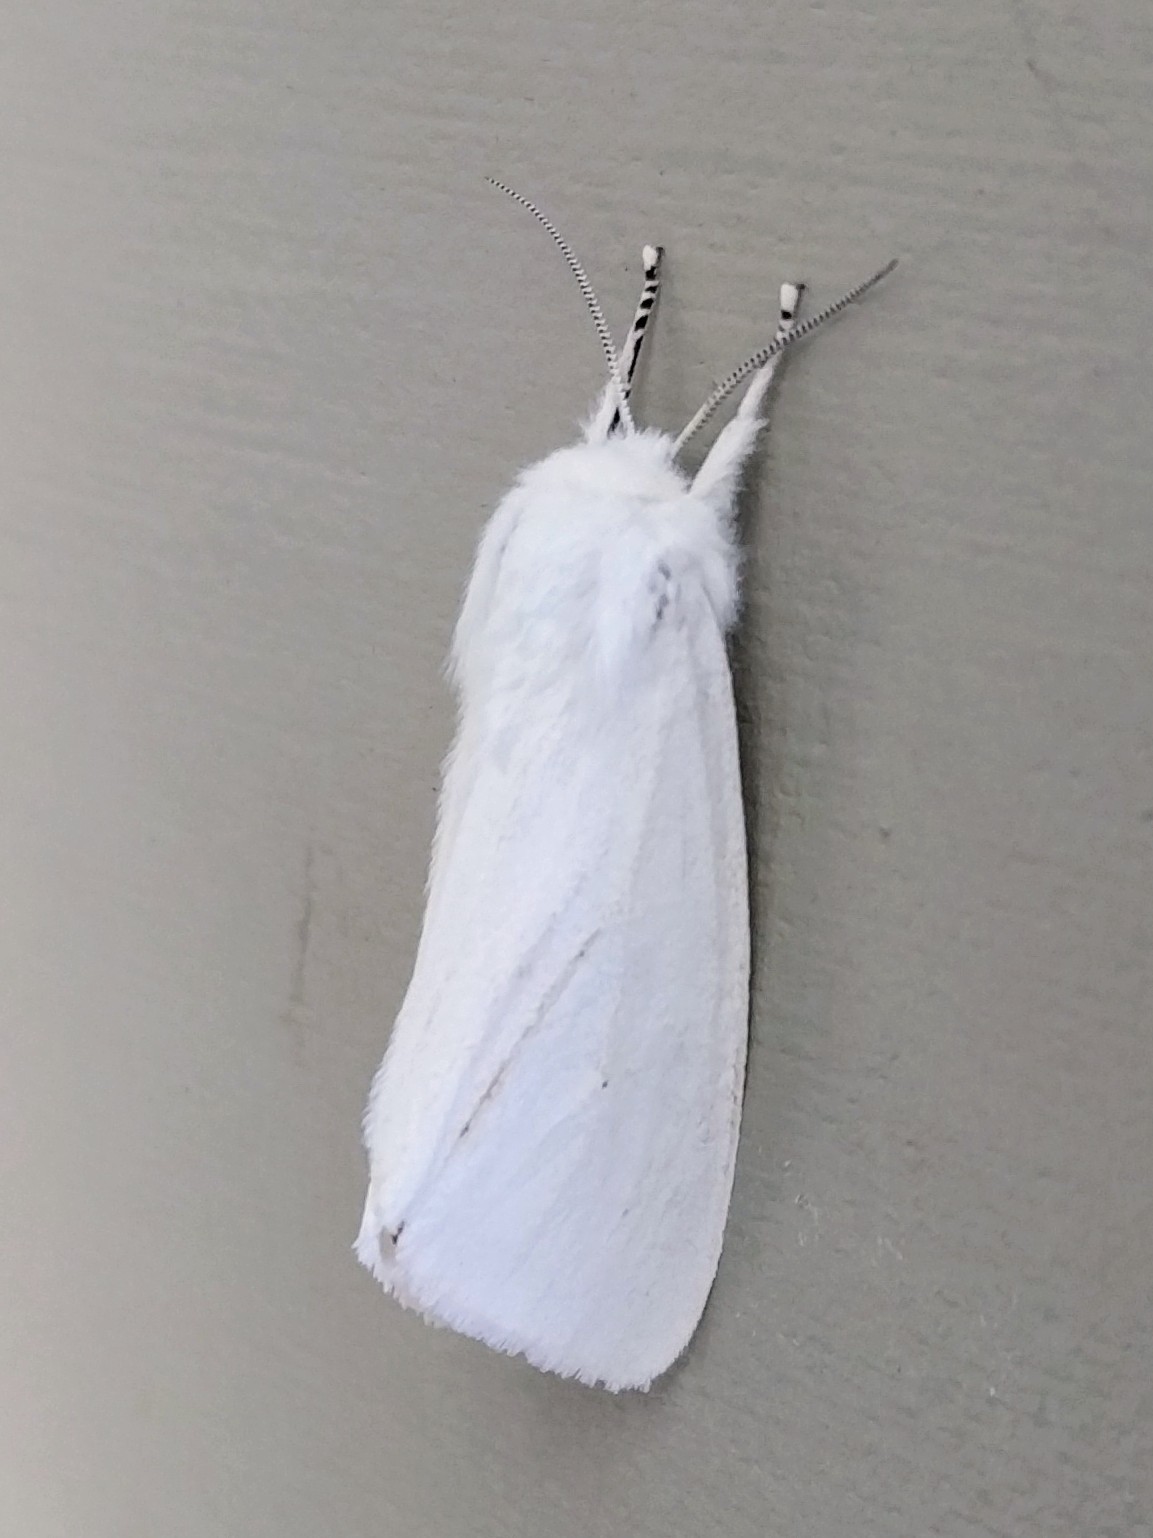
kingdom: Animalia
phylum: Arthropoda
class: Insecta
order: Lepidoptera
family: Erebidae
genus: Spilosoma
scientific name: Spilosoma virginica
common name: Virginia tiger moth
